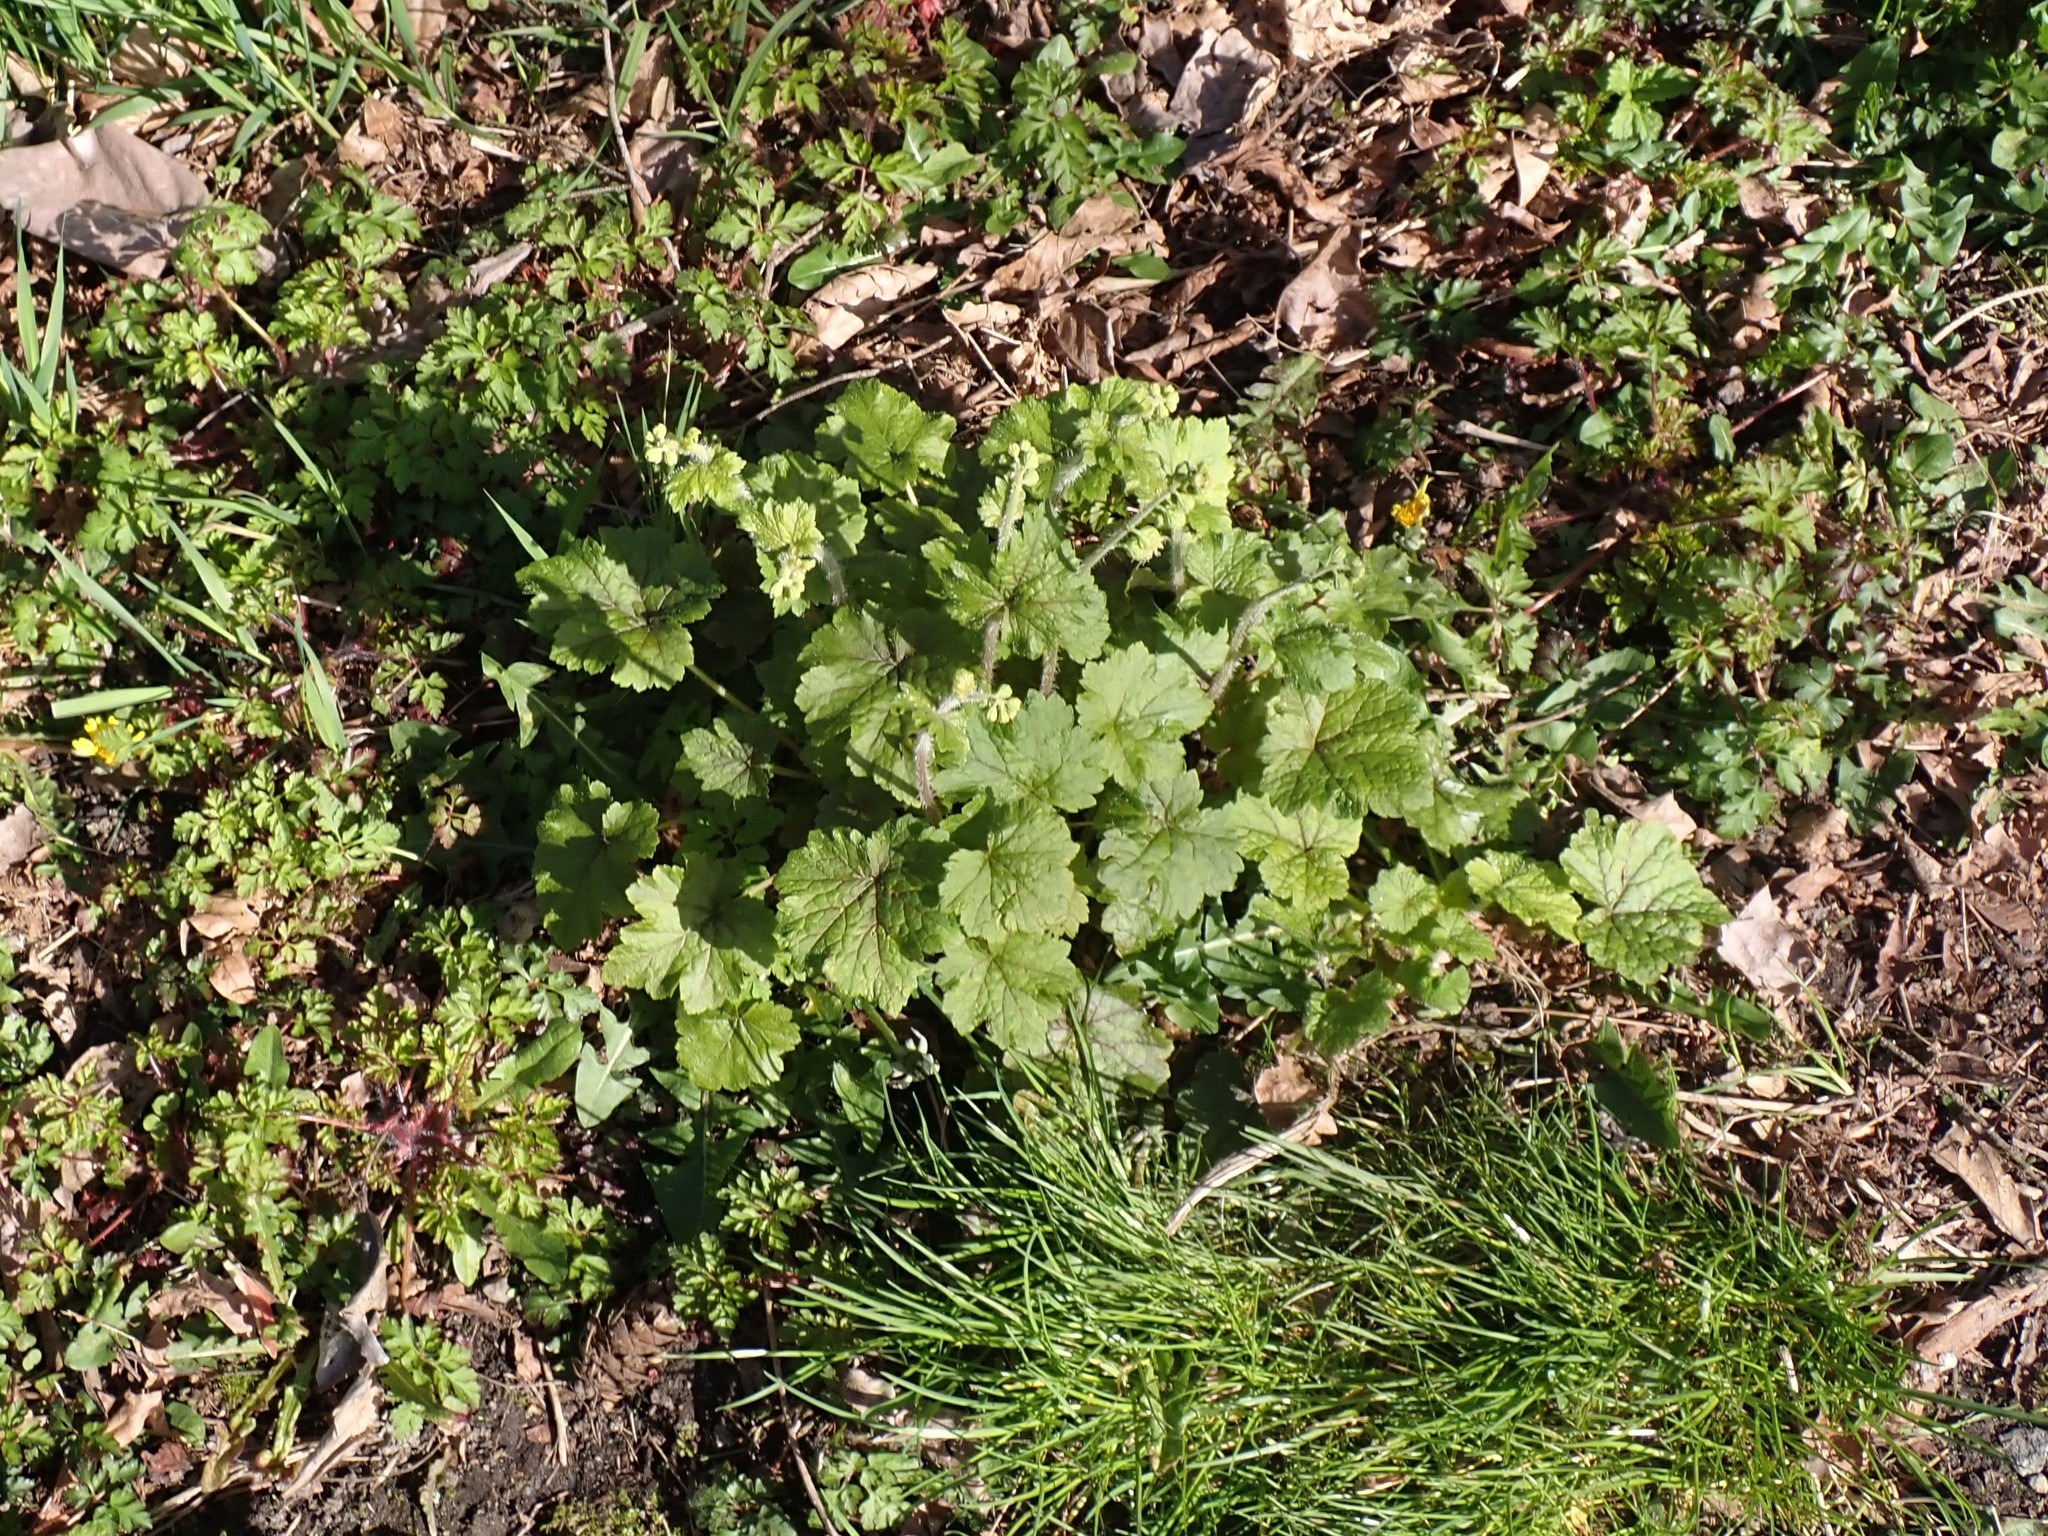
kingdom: Plantae
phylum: Tracheophyta
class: Magnoliopsida
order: Saxifragales
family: Saxifragaceae
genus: Tellima
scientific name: Tellima grandiflora
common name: Fringecups
